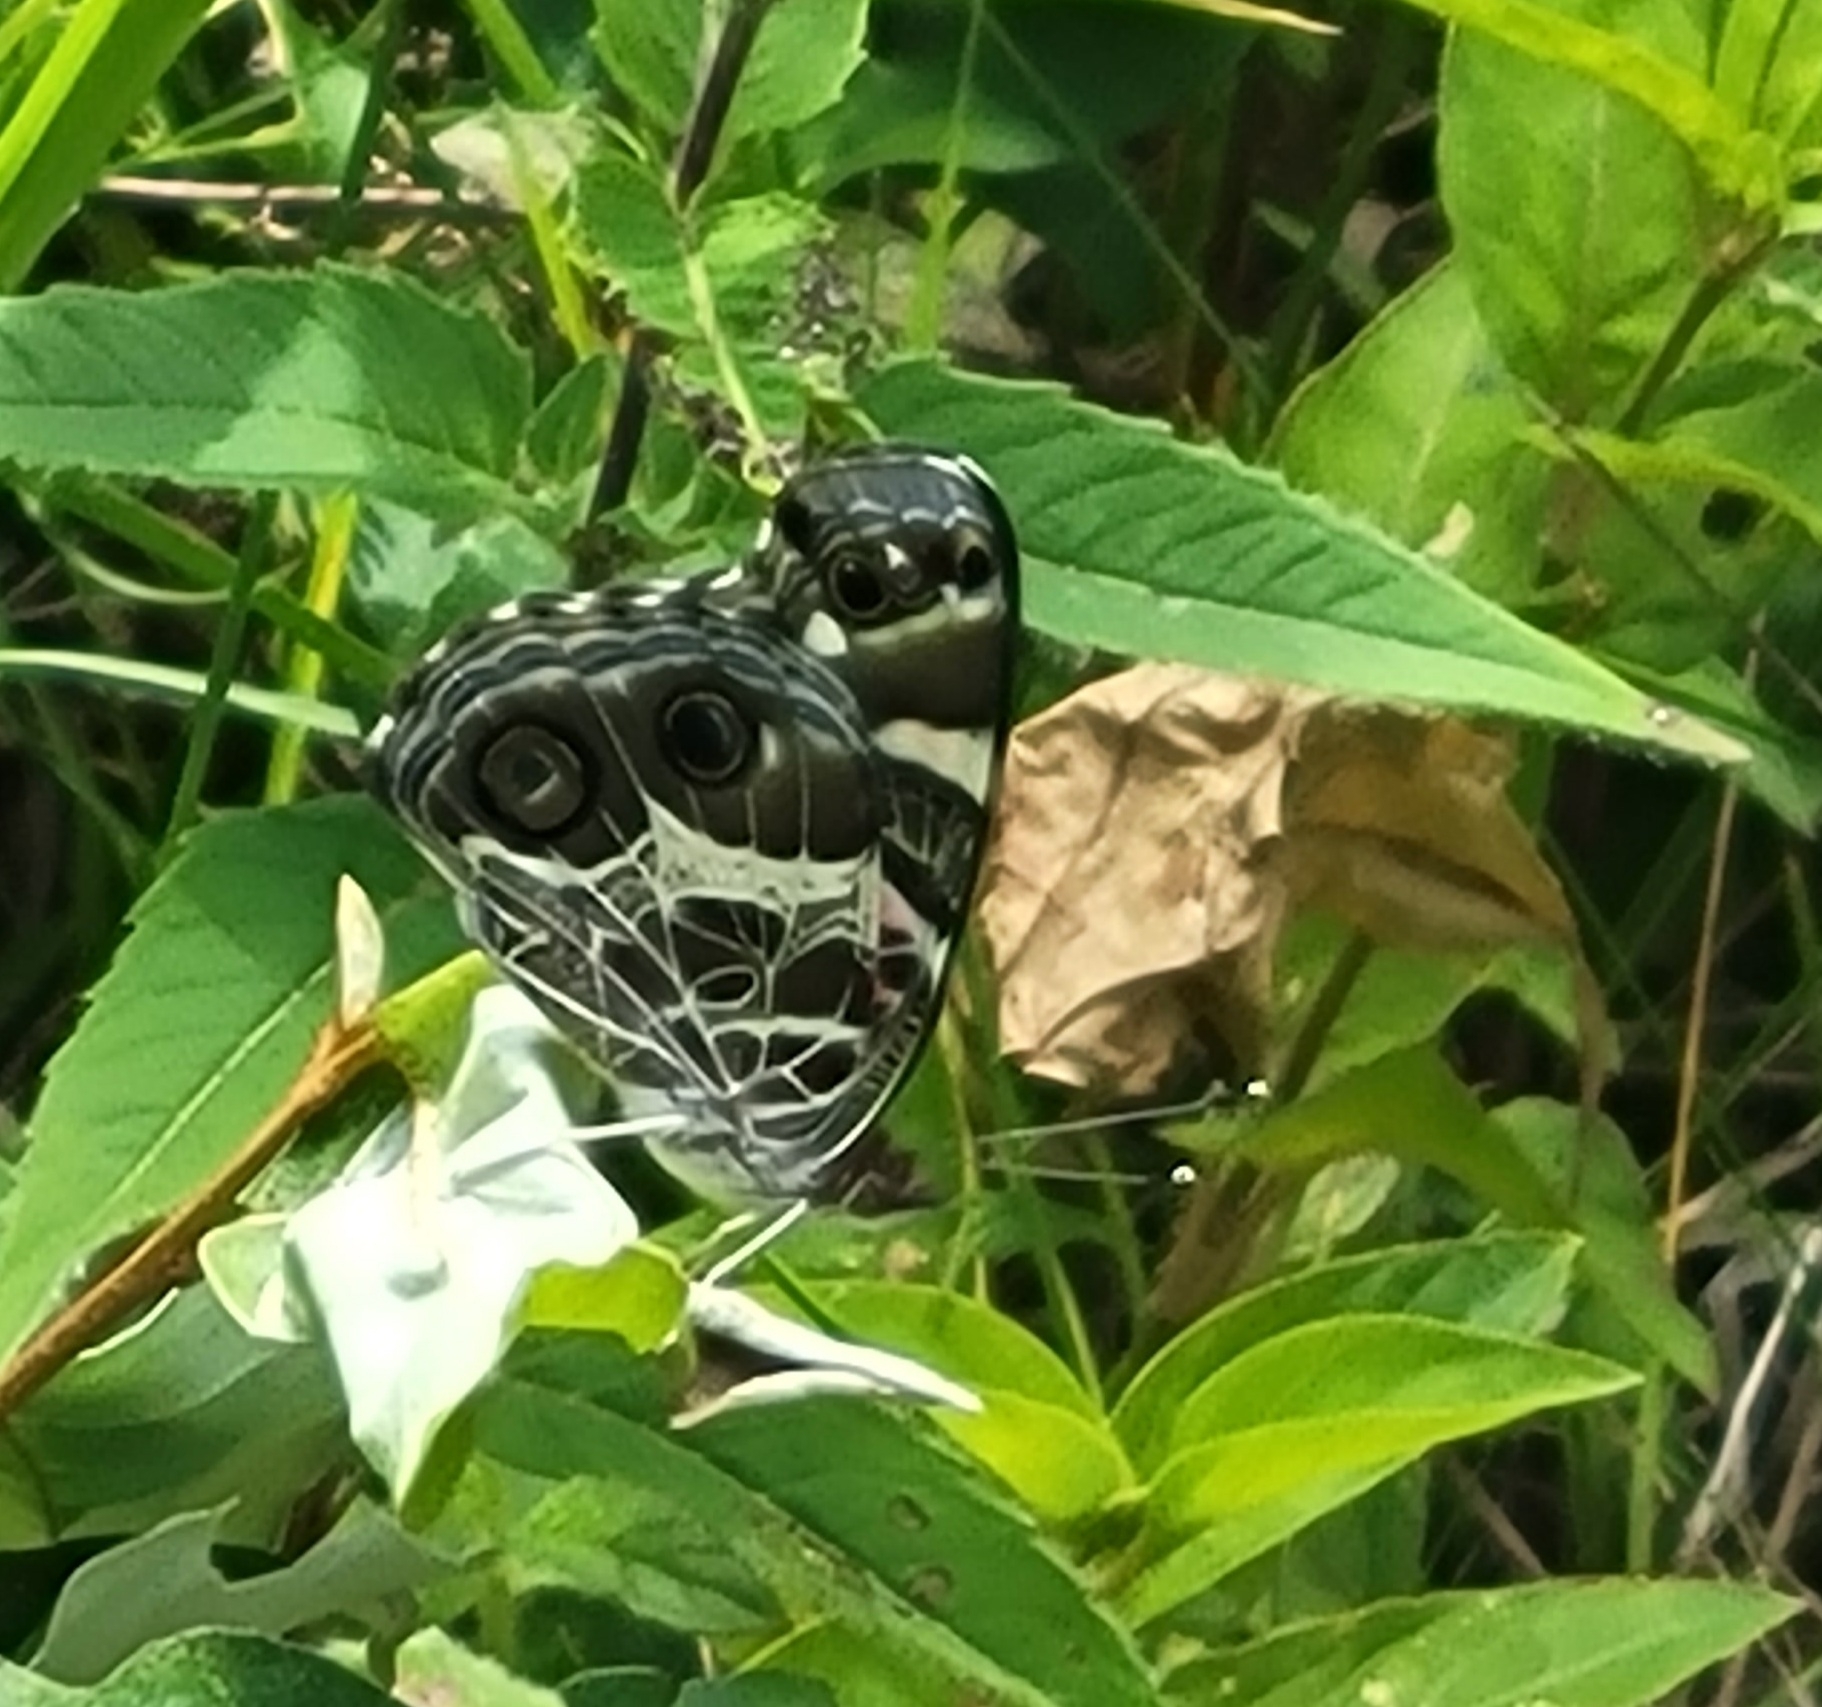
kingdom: Animalia
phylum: Arthropoda
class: Insecta
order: Lepidoptera
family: Nymphalidae
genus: Vanessa
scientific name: Vanessa virginiensis
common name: American lady
